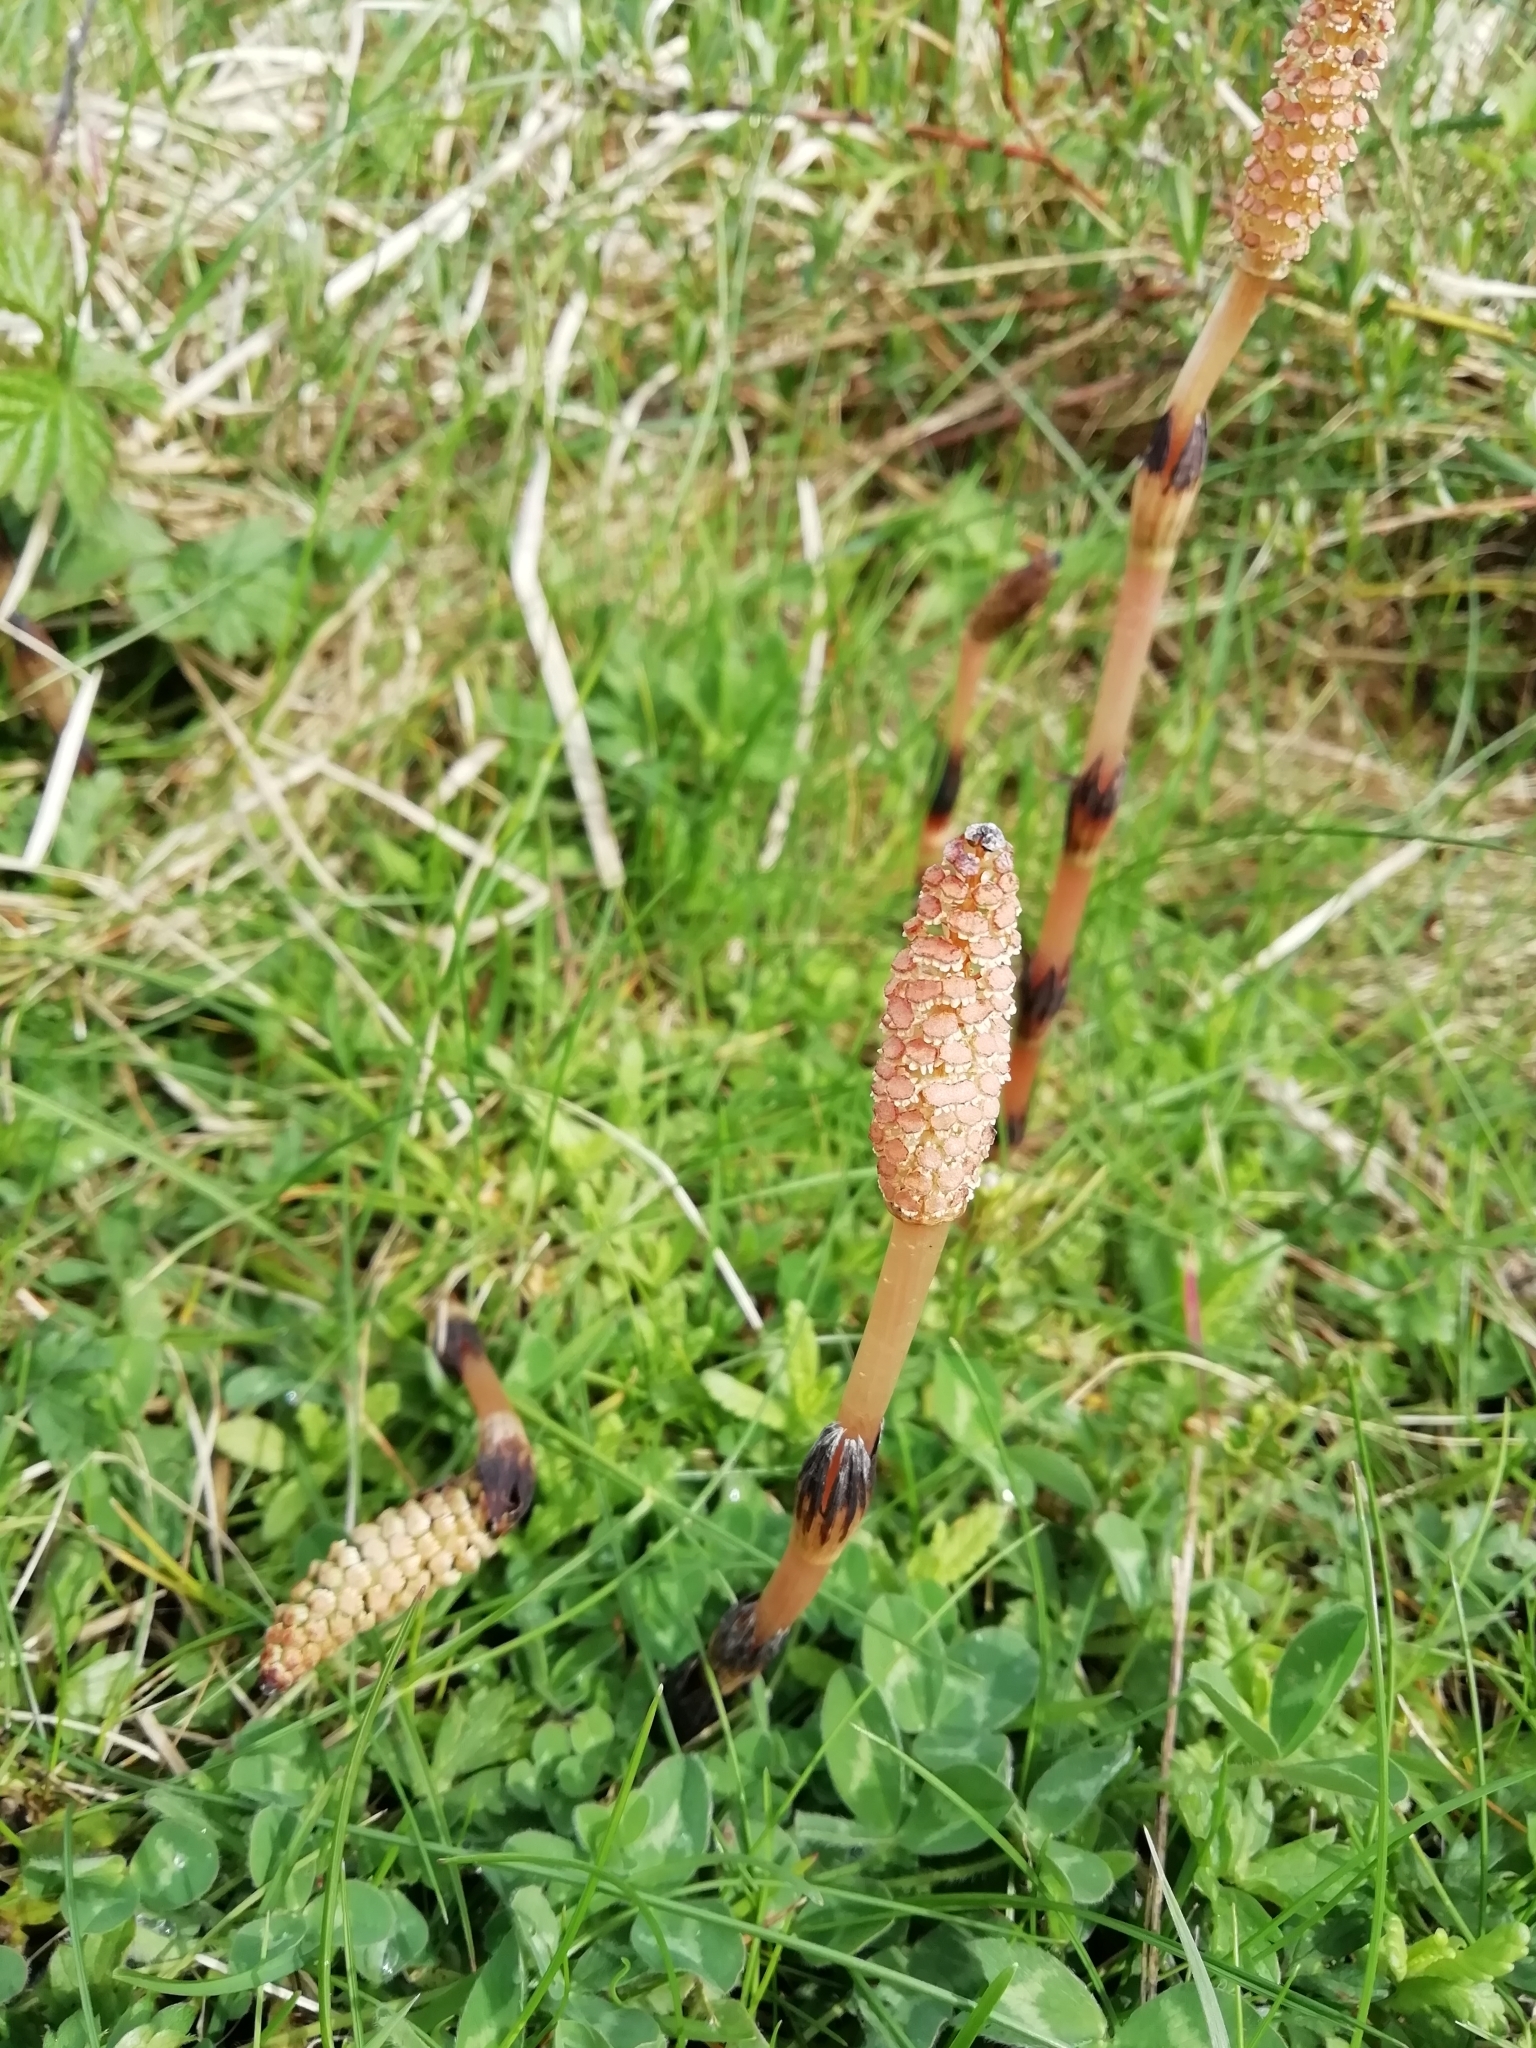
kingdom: Plantae
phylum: Tracheophyta
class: Polypodiopsida
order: Equisetales
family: Equisetaceae
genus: Equisetum
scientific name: Equisetum arvense
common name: Field horsetail
